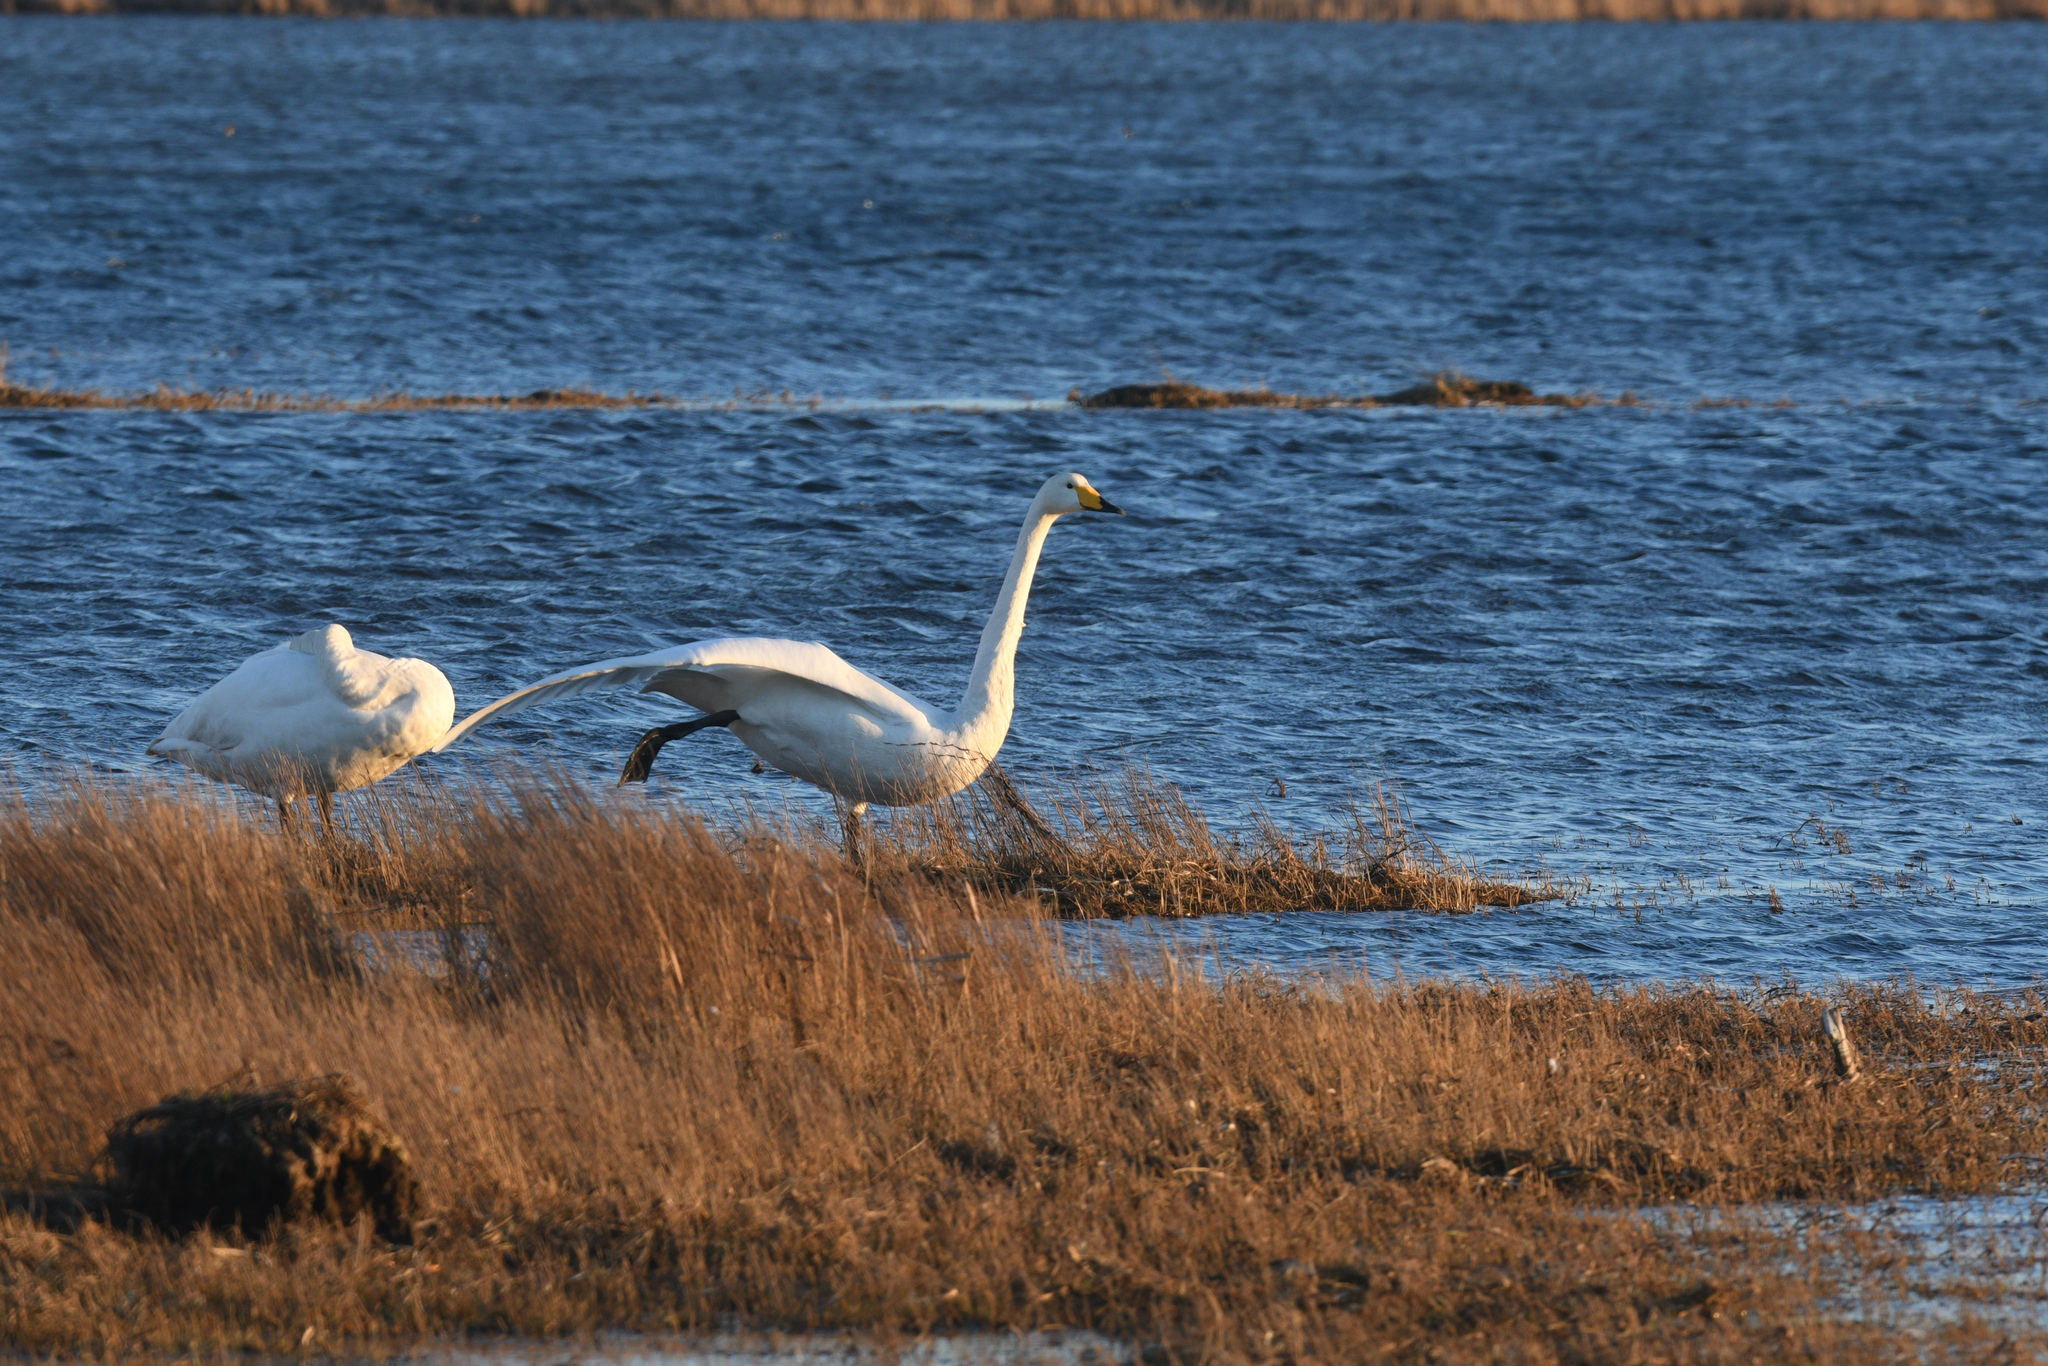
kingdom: Animalia
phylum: Chordata
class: Aves
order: Anseriformes
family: Anatidae
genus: Cygnus
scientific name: Cygnus cygnus
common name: Whooper swan
